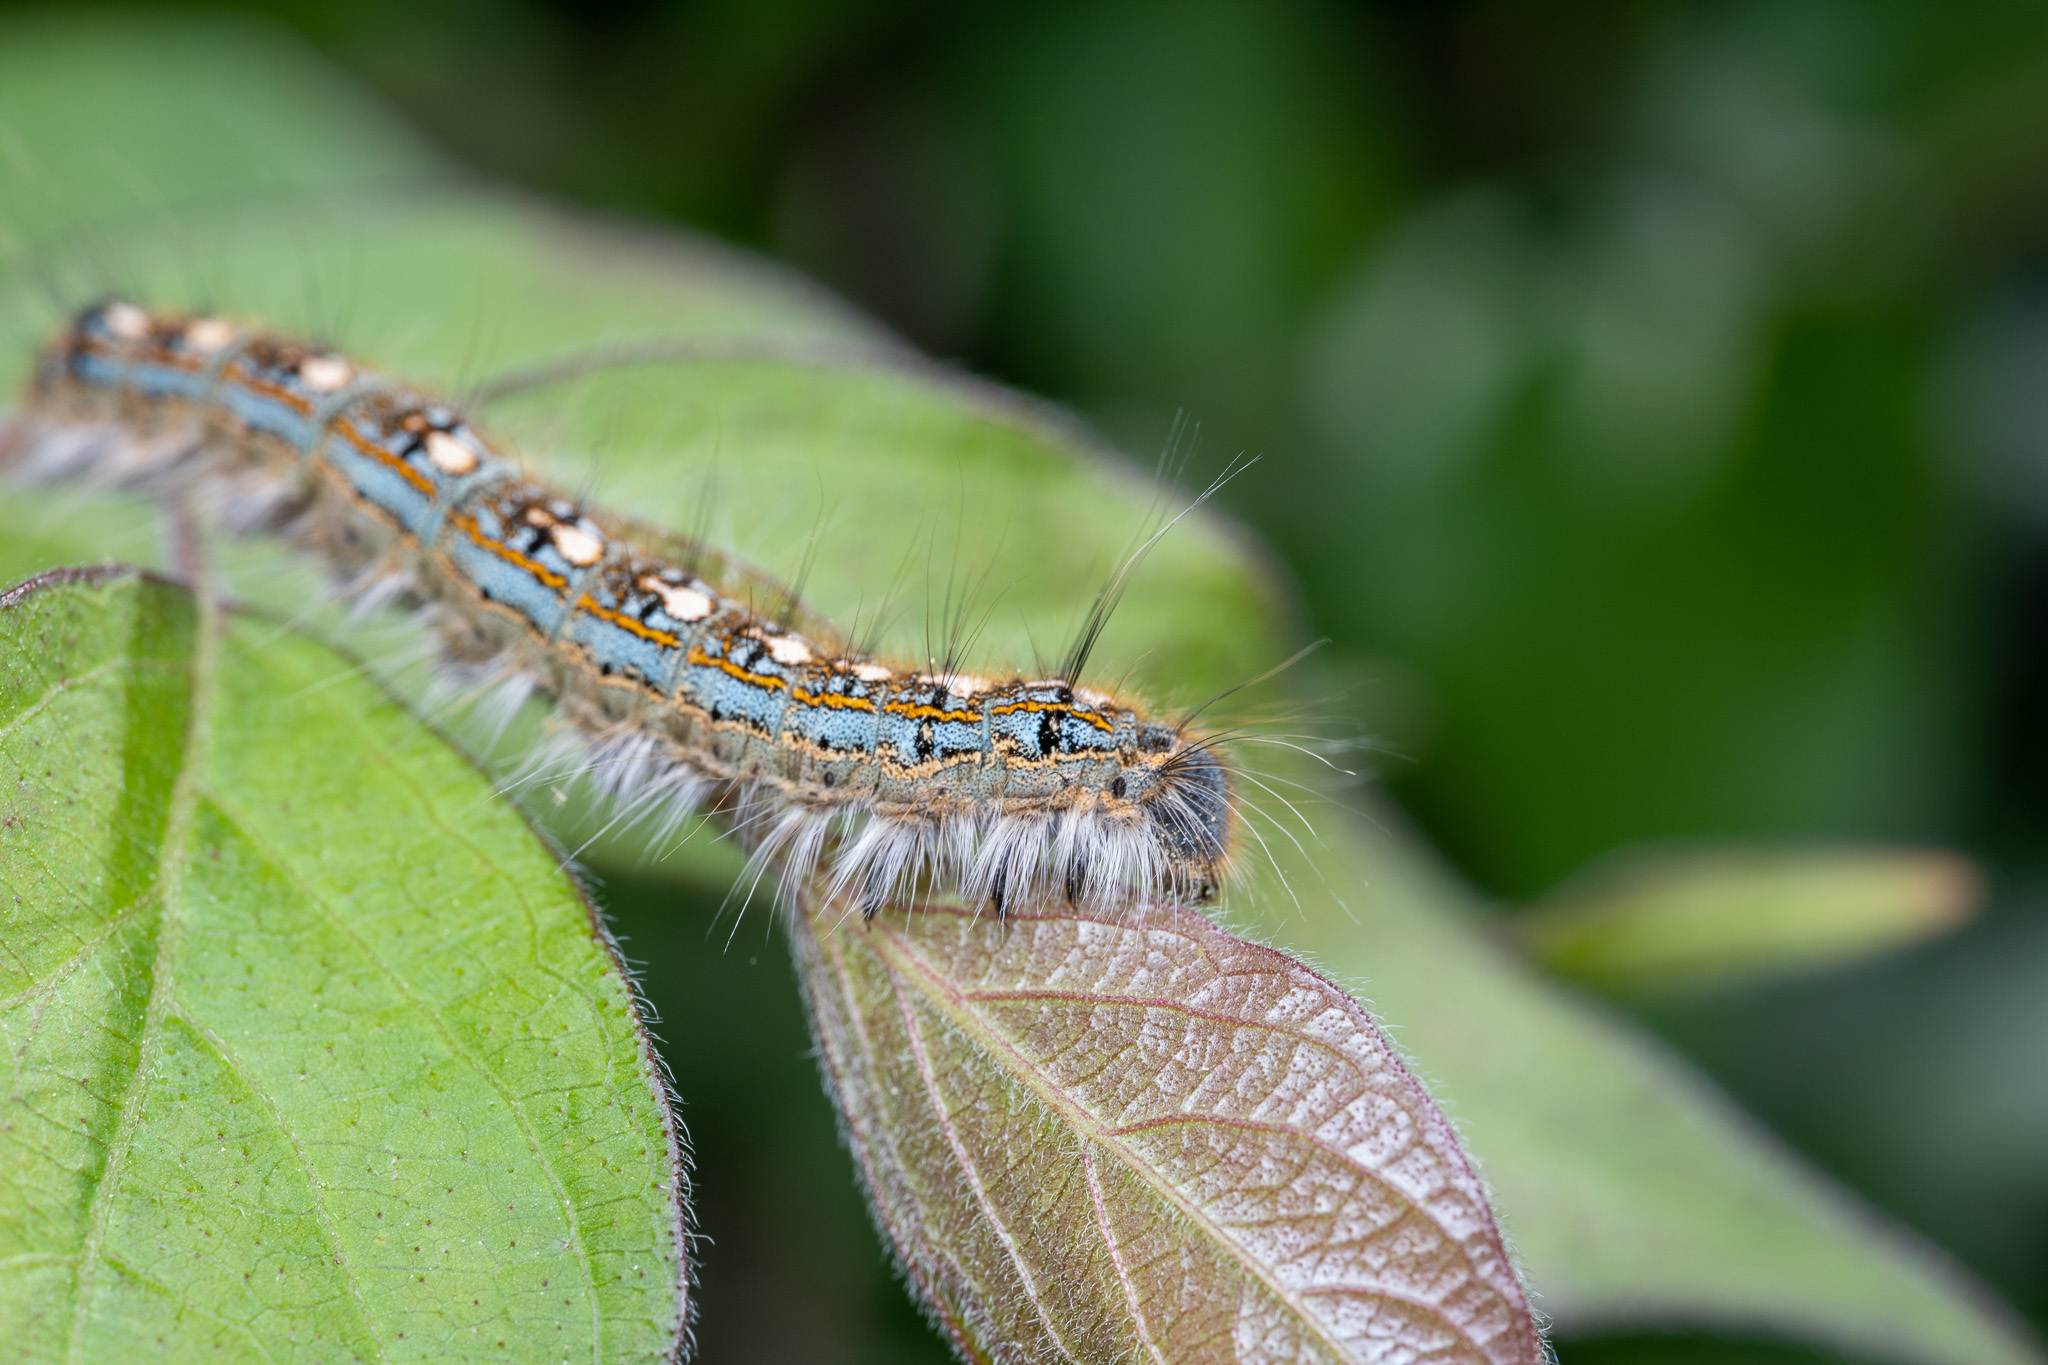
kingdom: Animalia
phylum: Arthropoda
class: Insecta
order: Lepidoptera
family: Lasiocampidae
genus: Malacosoma
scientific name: Malacosoma disstria
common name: Forest tent caterpillar
